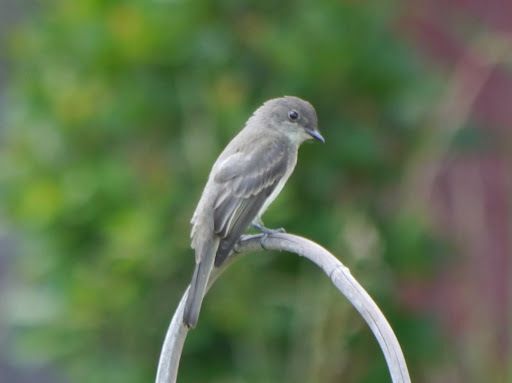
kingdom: Animalia
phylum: Chordata
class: Aves
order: Passeriformes
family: Tyrannidae
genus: Contopus
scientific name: Contopus virens
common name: Eastern wood-pewee
